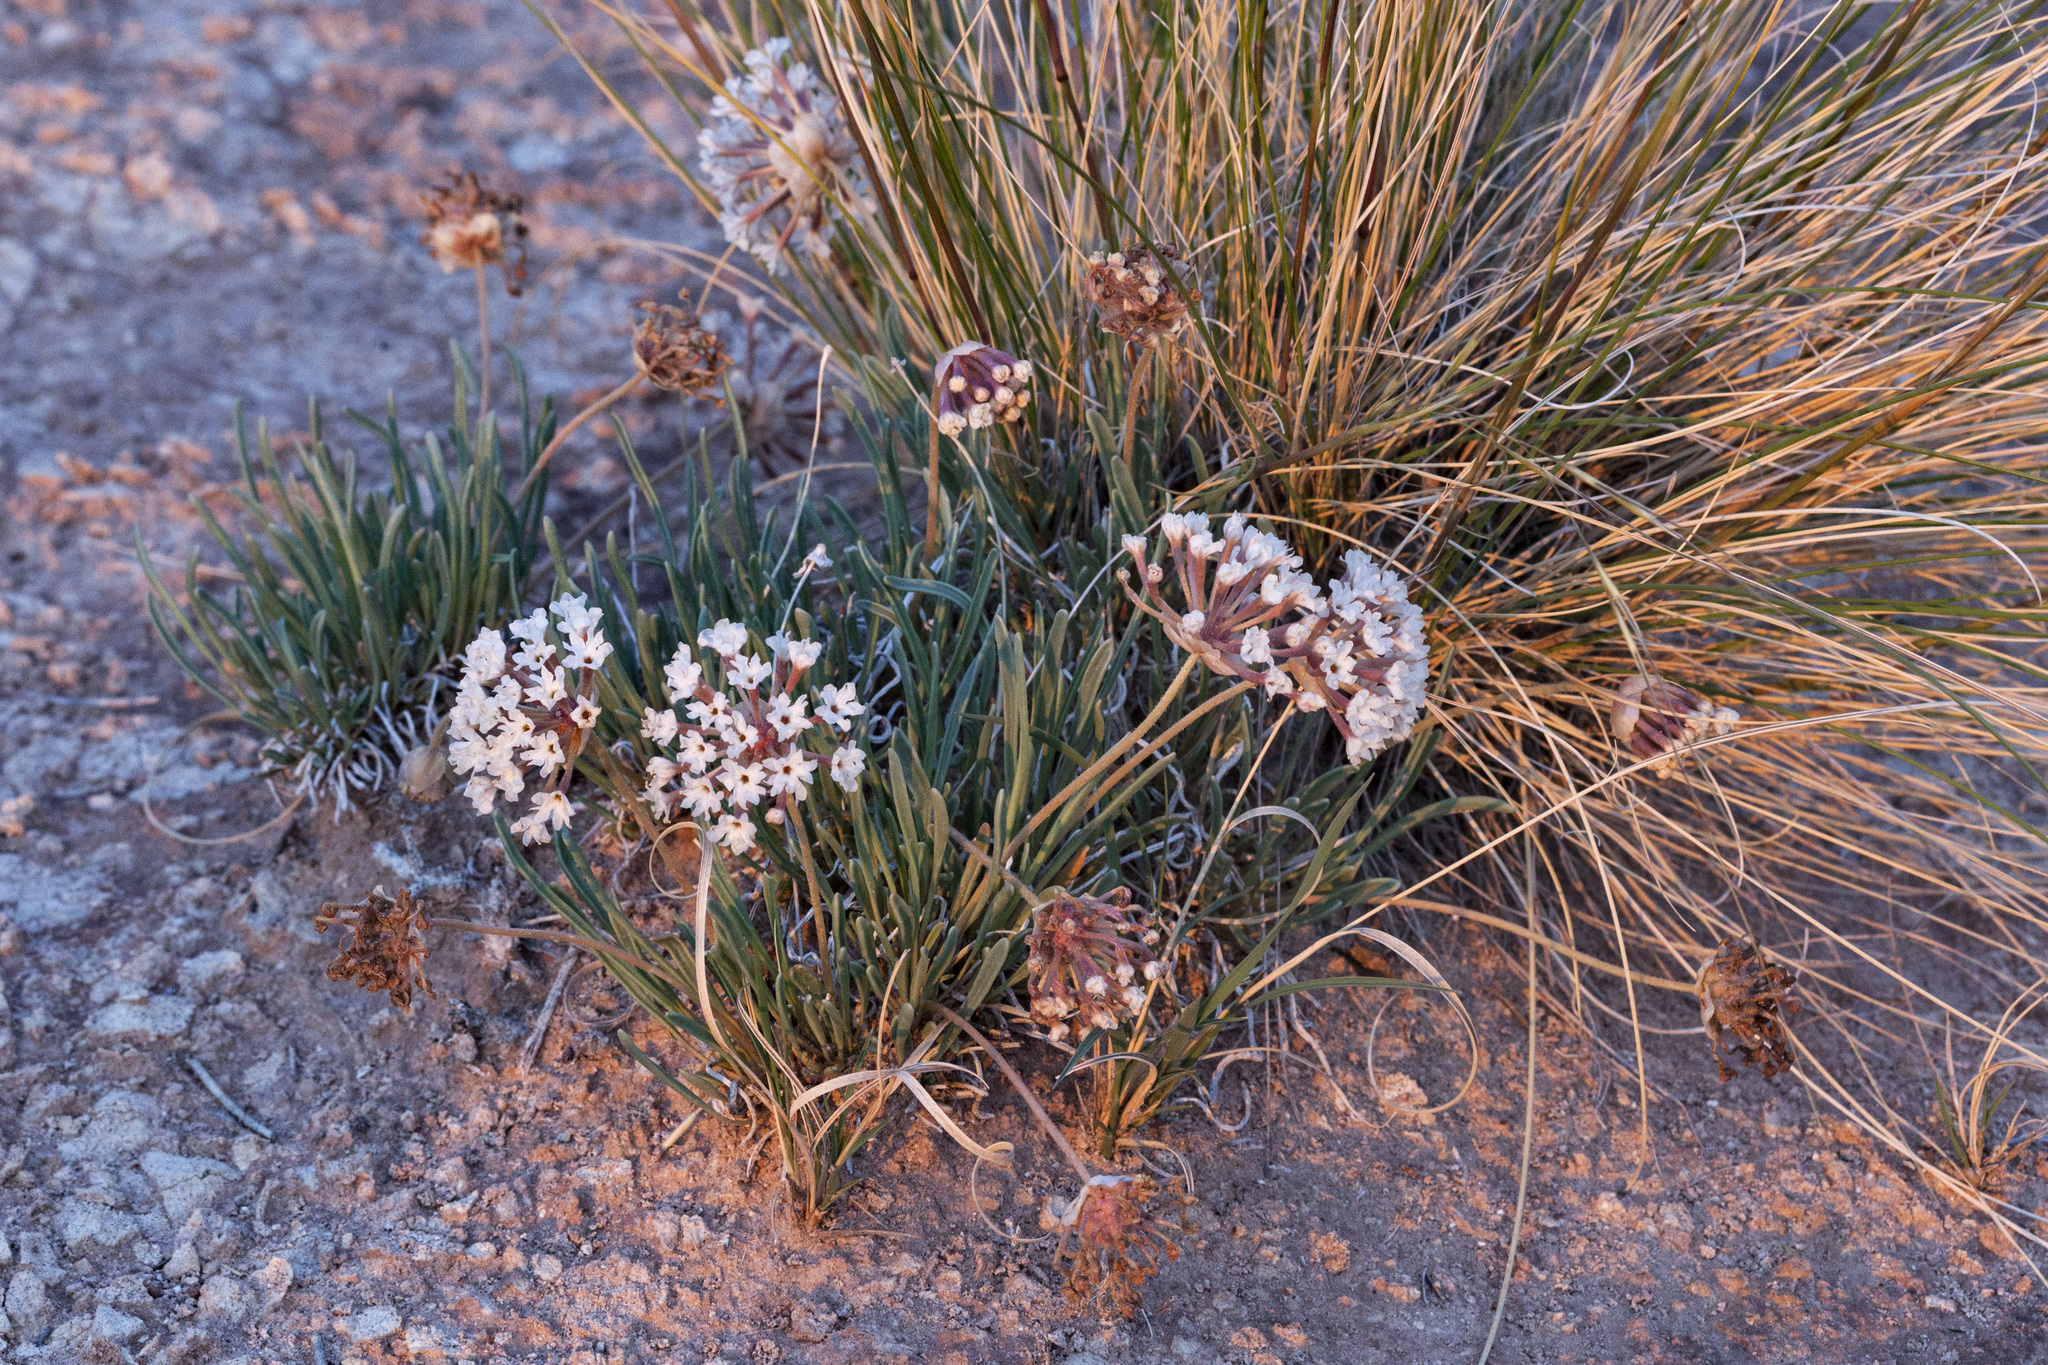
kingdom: Plantae
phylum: Tracheophyta
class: Magnoliopsida
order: Caryophyllales
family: Nyctaginaceae
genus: Abronia
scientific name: Abronia bigelovii
